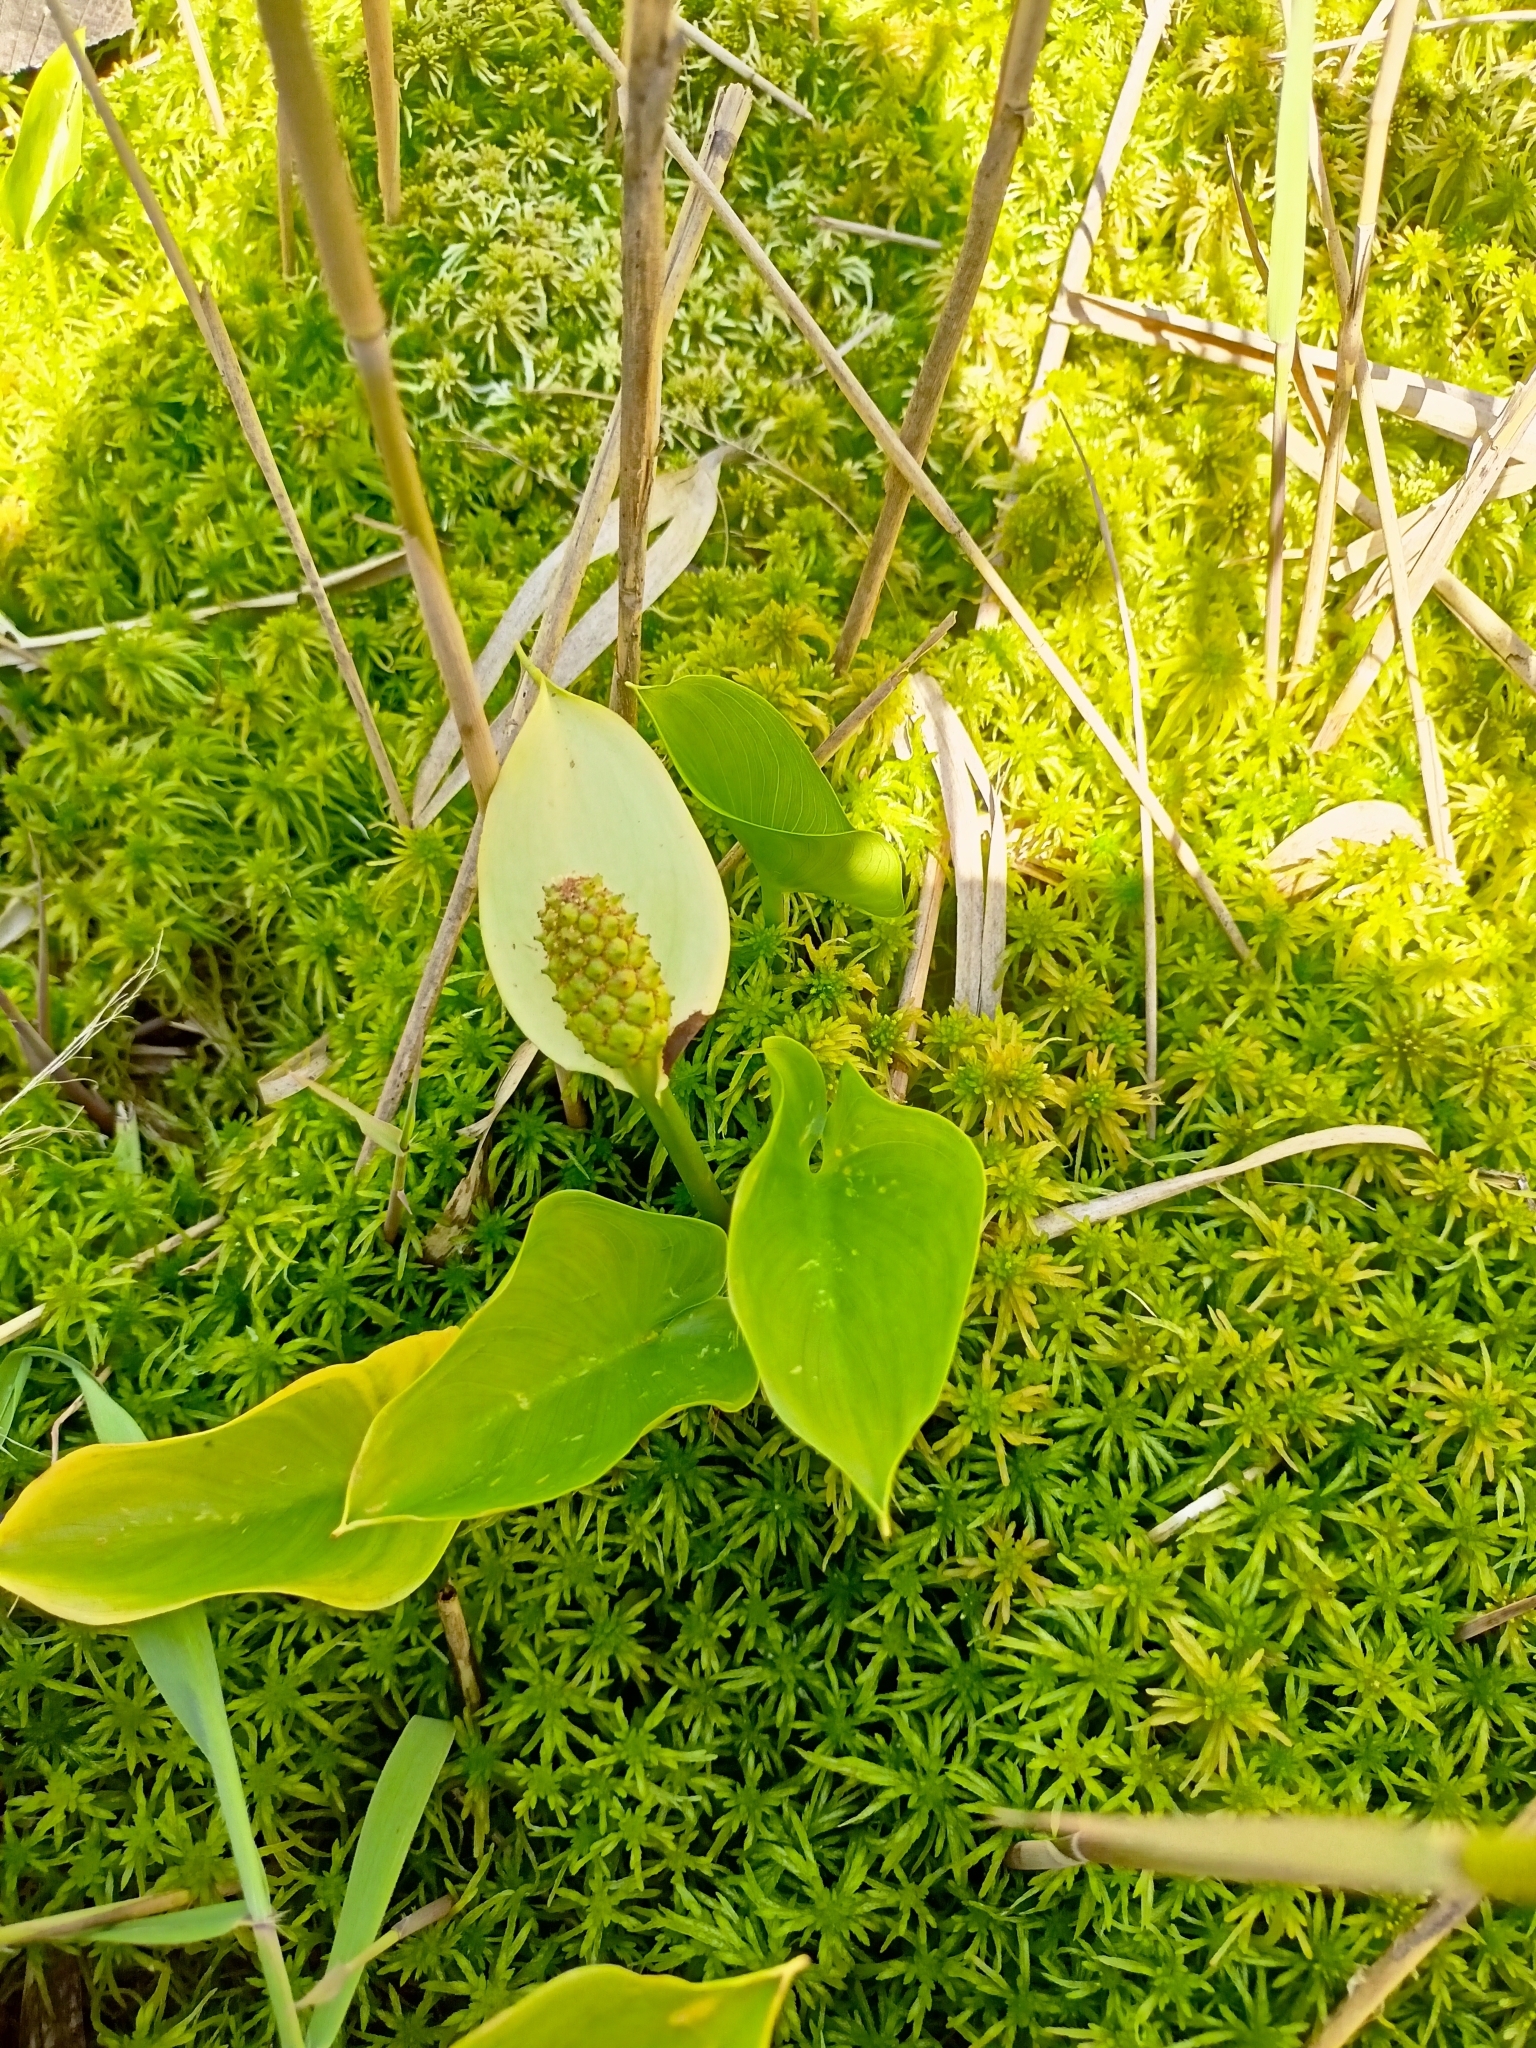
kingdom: Plantae
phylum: Tracheophyta
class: Liliopsida
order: Alismatales
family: Araceae
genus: Calla
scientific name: Calla palustris
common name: Bog arum
